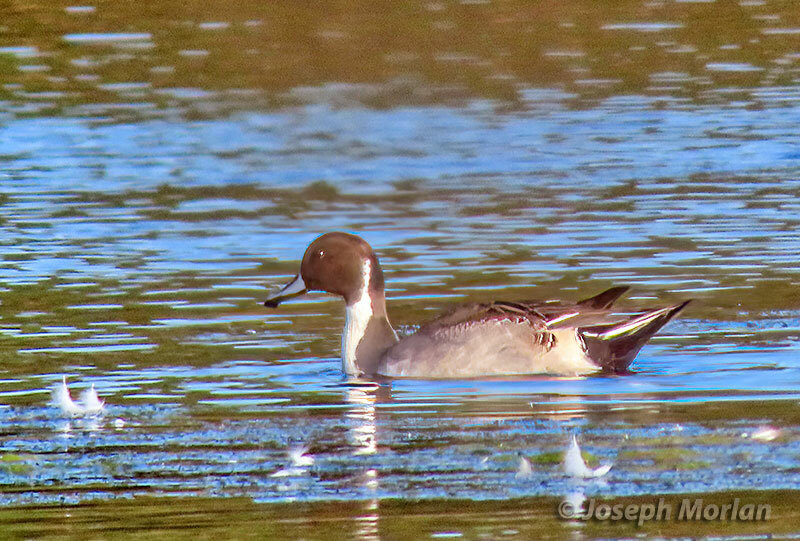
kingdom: Animalia
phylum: Chordata
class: Aves
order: Anseriformes
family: Anatidae
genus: Anas
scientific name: Anas acuta
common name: Northern pintail
